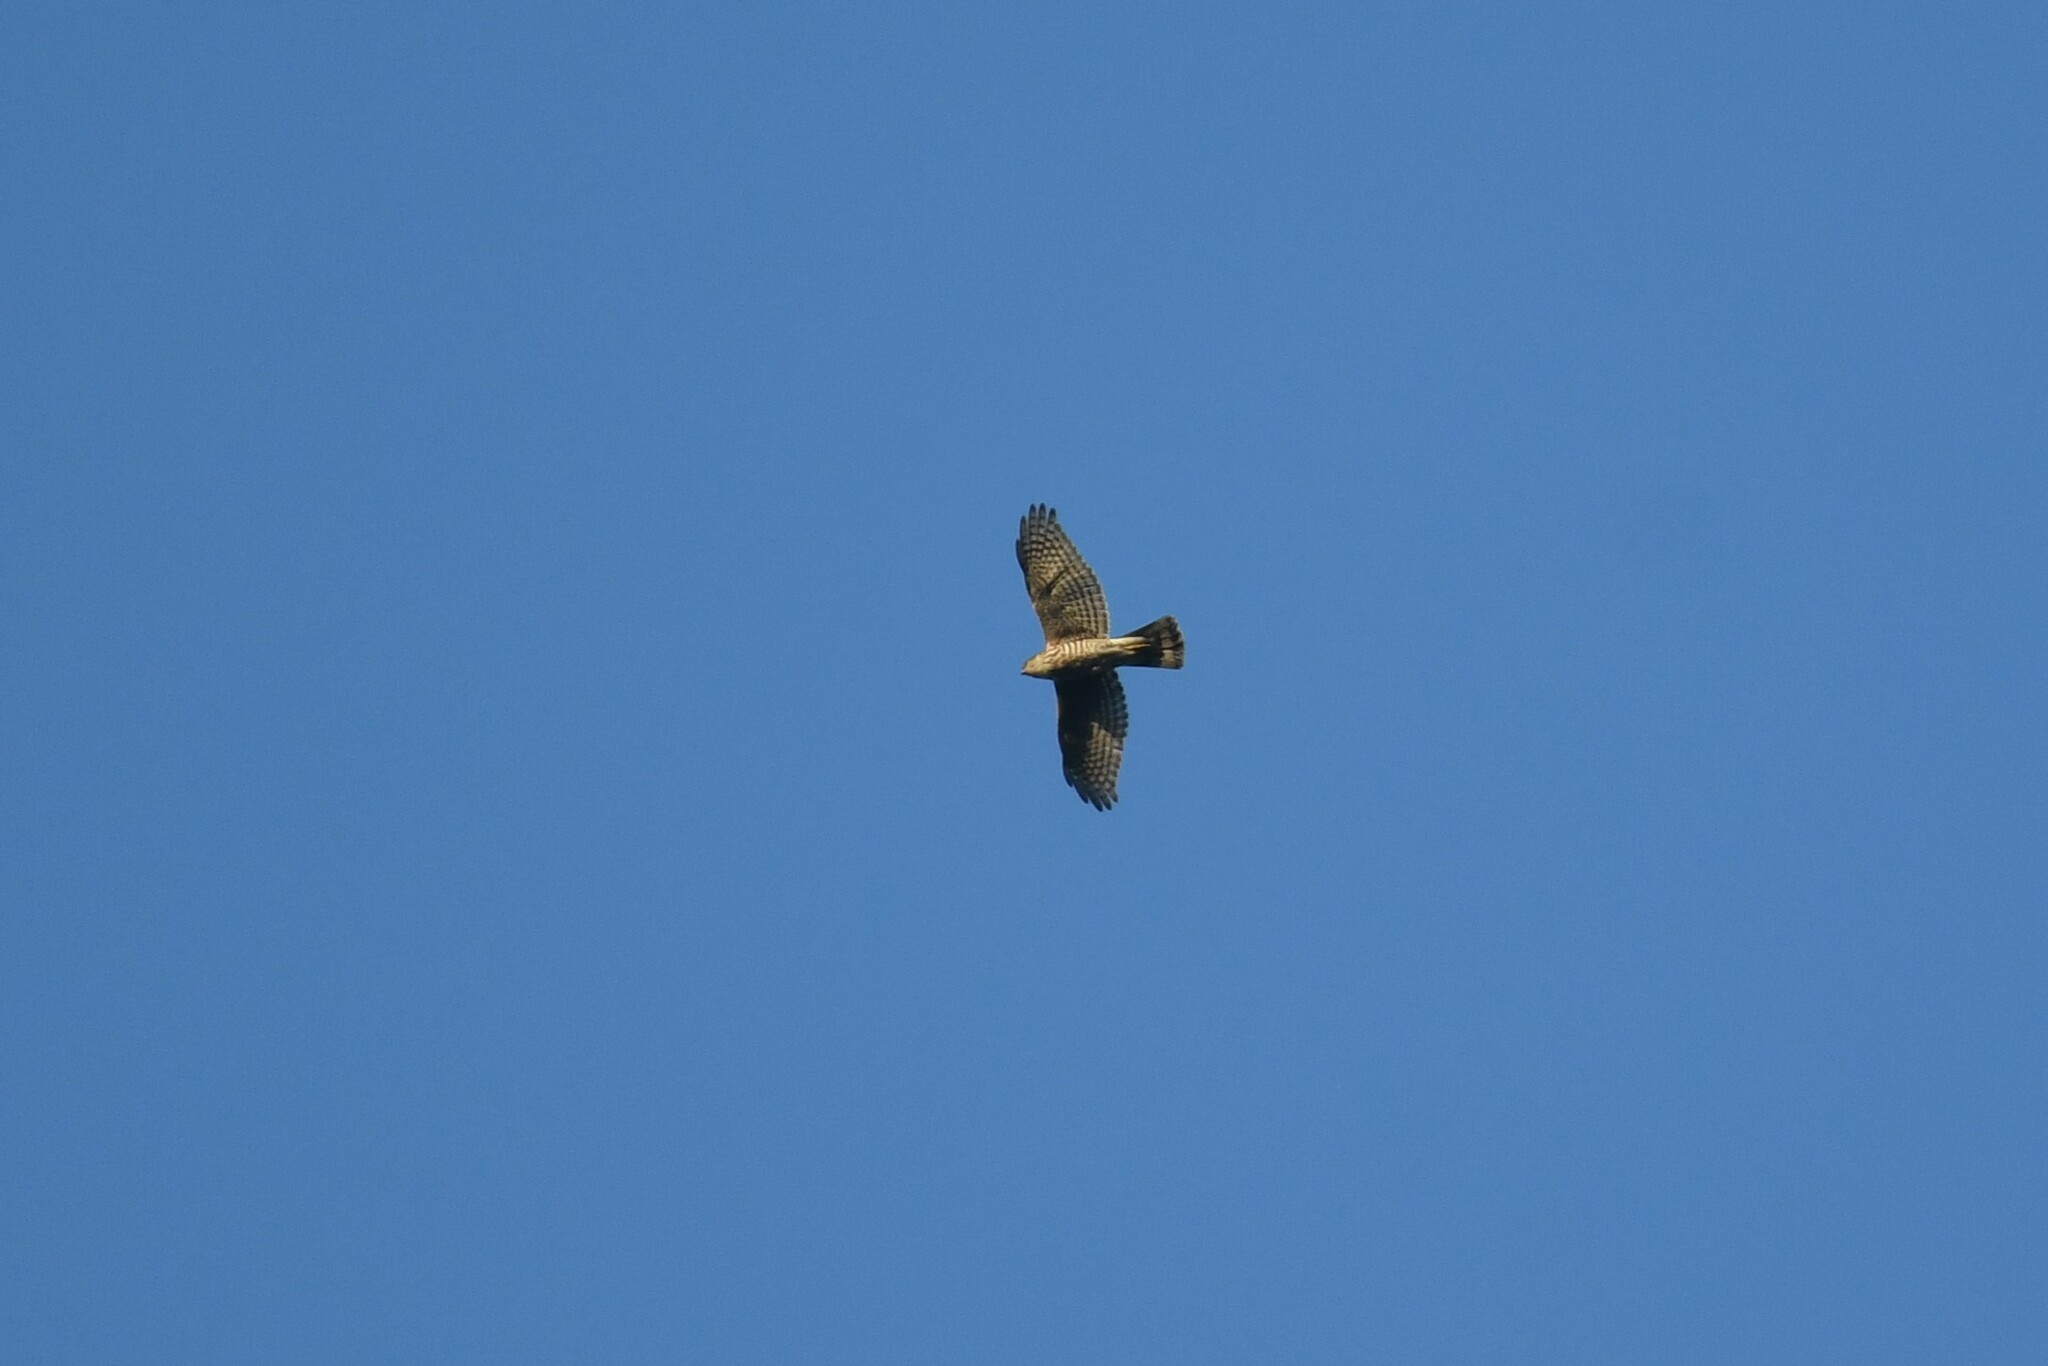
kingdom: Animalia
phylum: Chordata
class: Aves
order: Accipitriformes
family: Accipitridae
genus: Accipiter
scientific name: Accipiter gularis
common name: Japanese sparrowhawk
